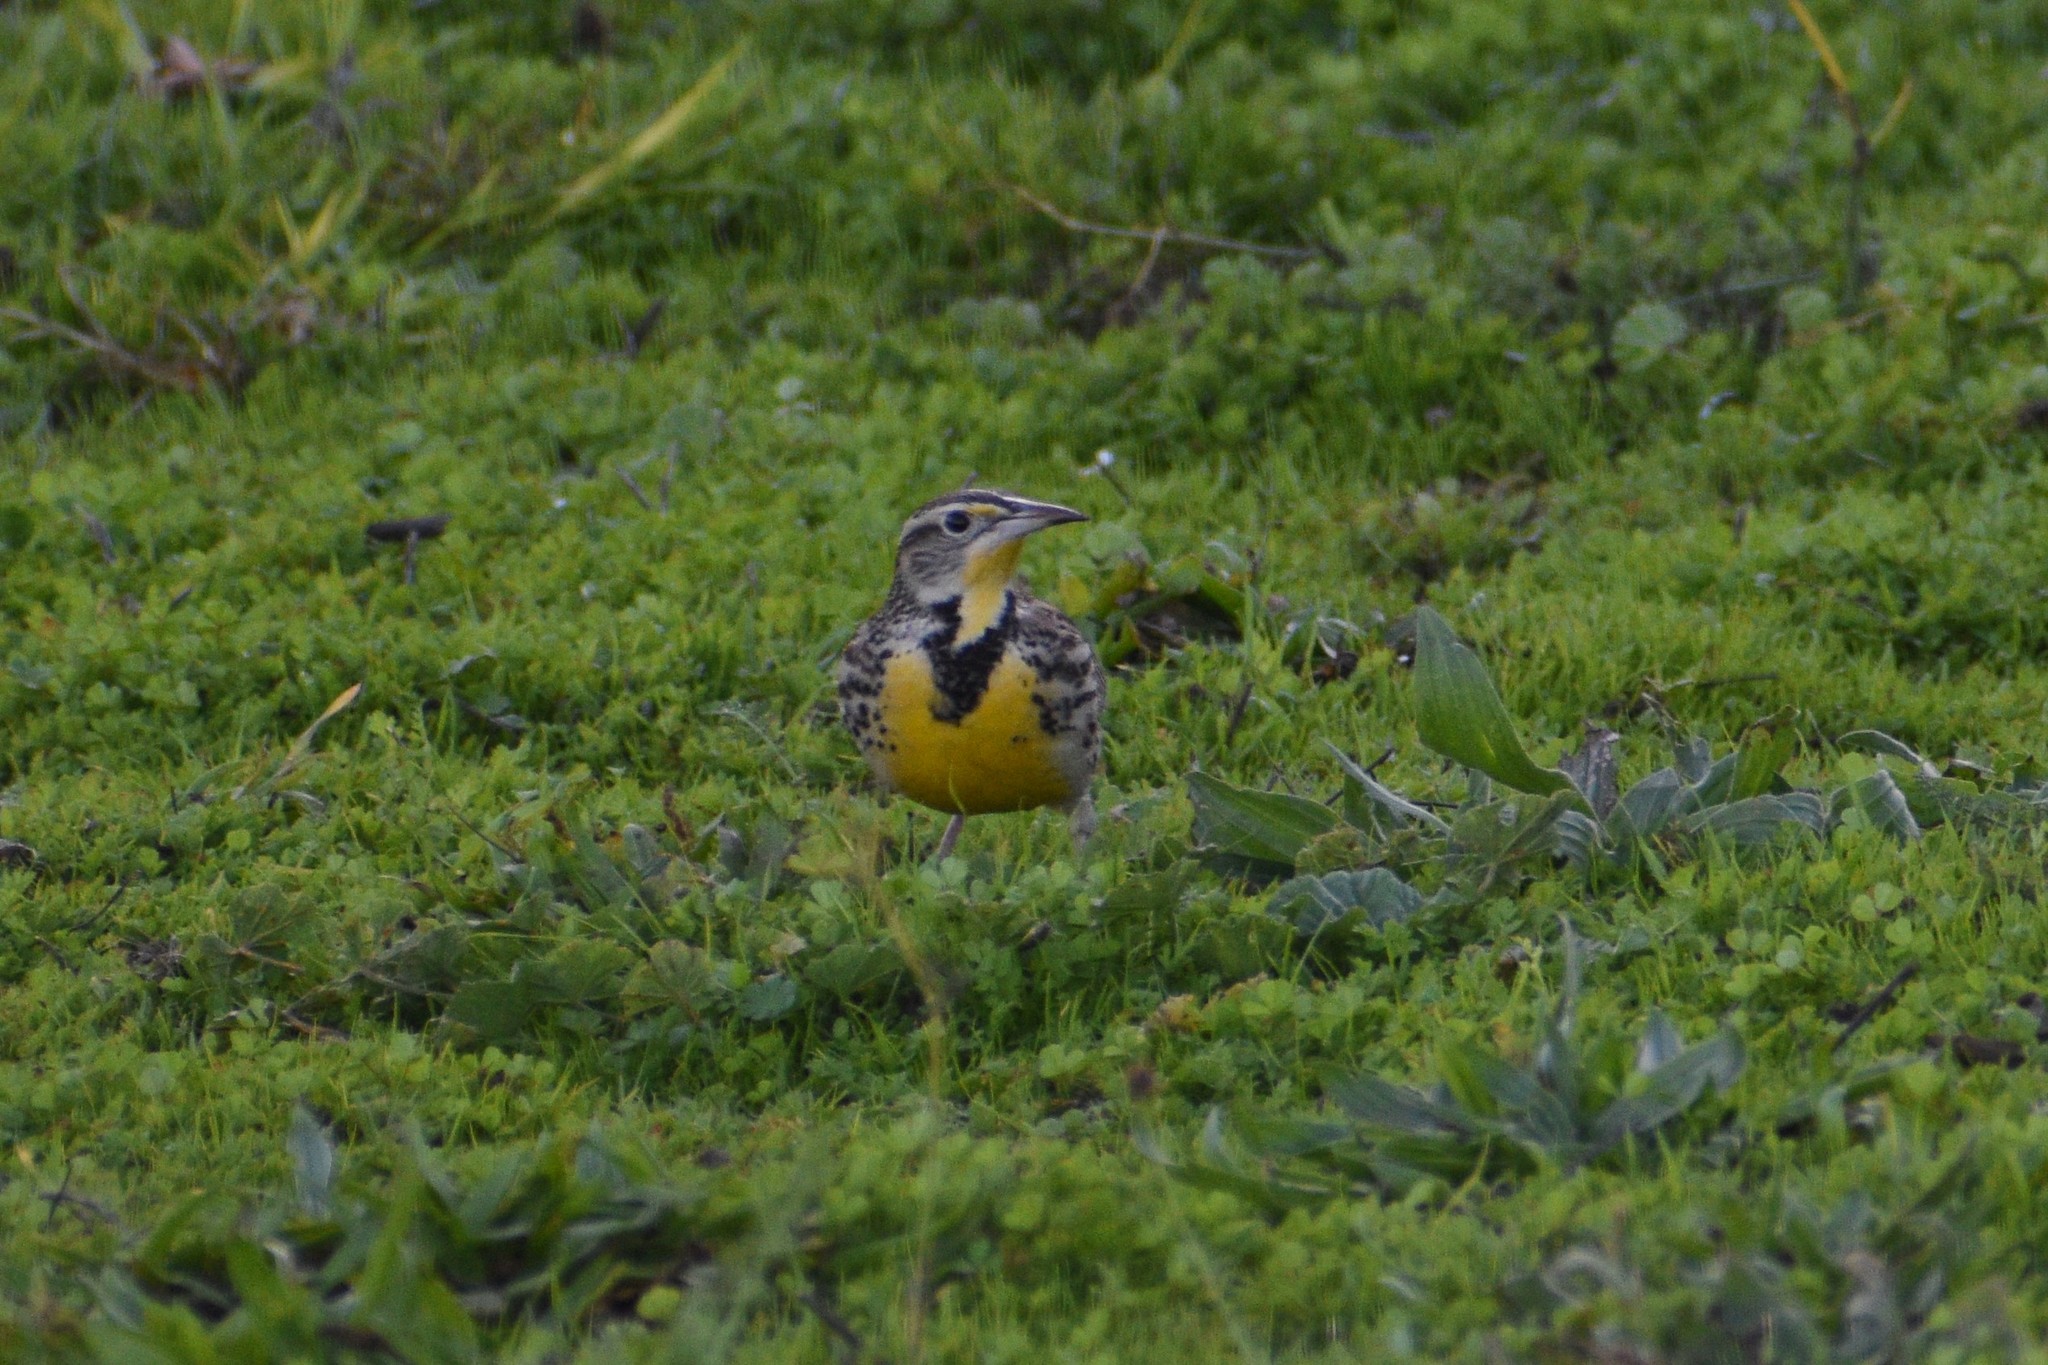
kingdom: Animalia
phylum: Chordata
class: Aves
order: Passeriformes
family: Icteridae
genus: Sturnella
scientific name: Sturnella neglecta
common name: Western meadowlark
